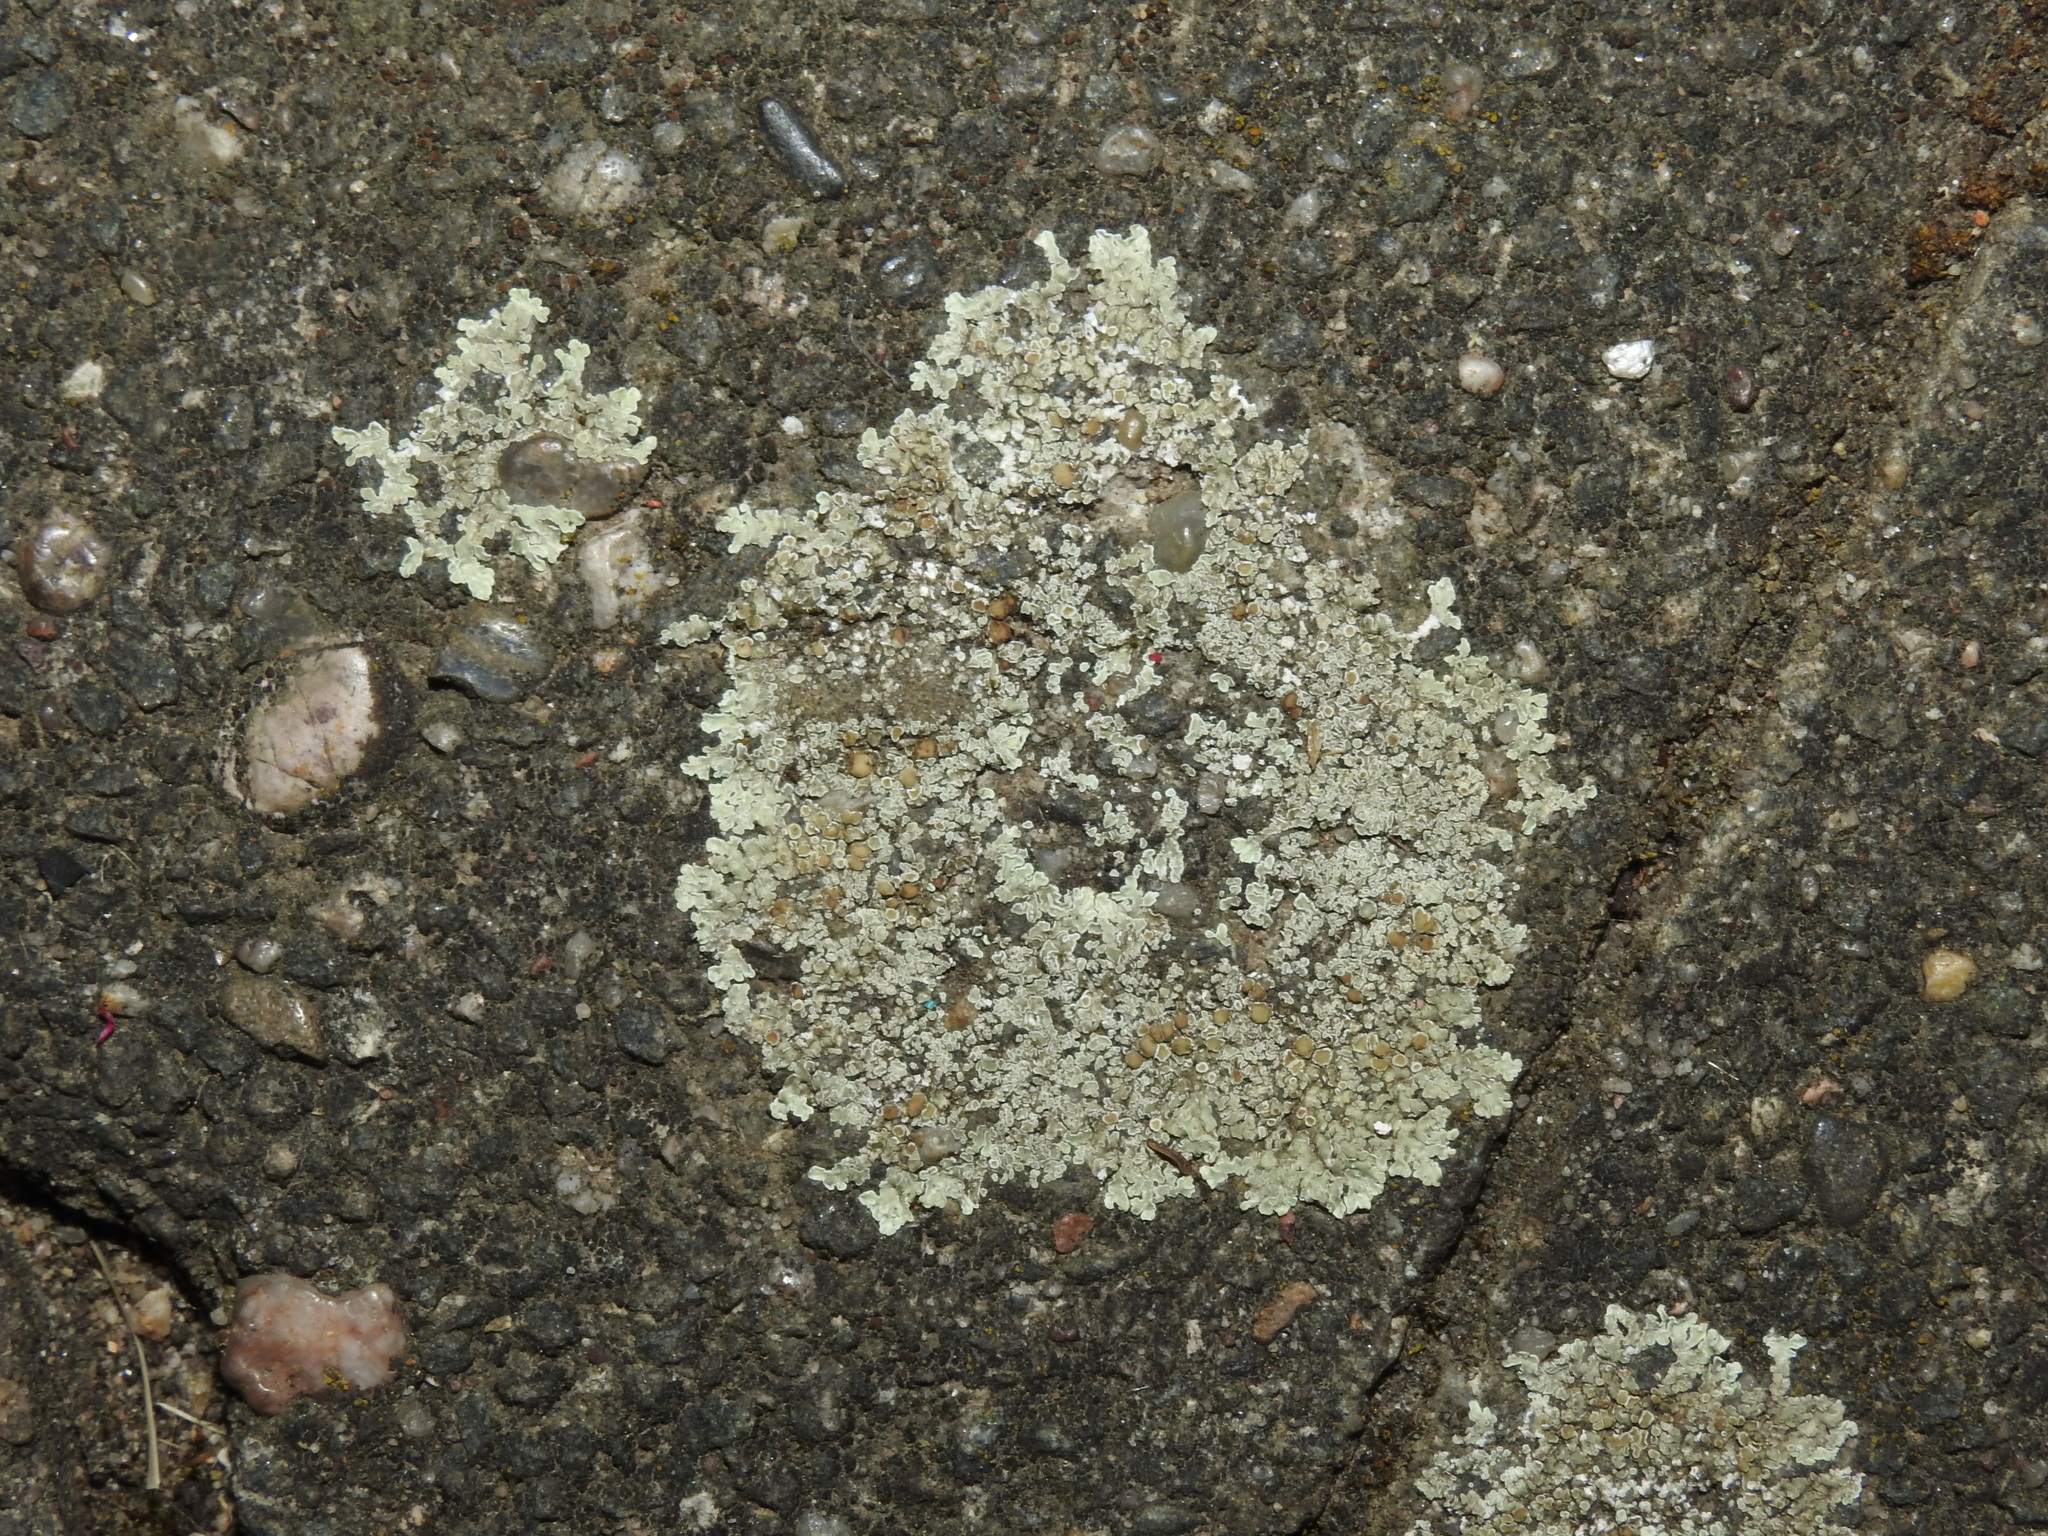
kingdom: Fungi
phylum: Ascomycota
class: Lecanoromycetes
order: Lecanorales
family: Lecanoraceae
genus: Protoparmeliopsis
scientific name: Protoparmeliopsis muralis
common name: Stonewall rim lichen
